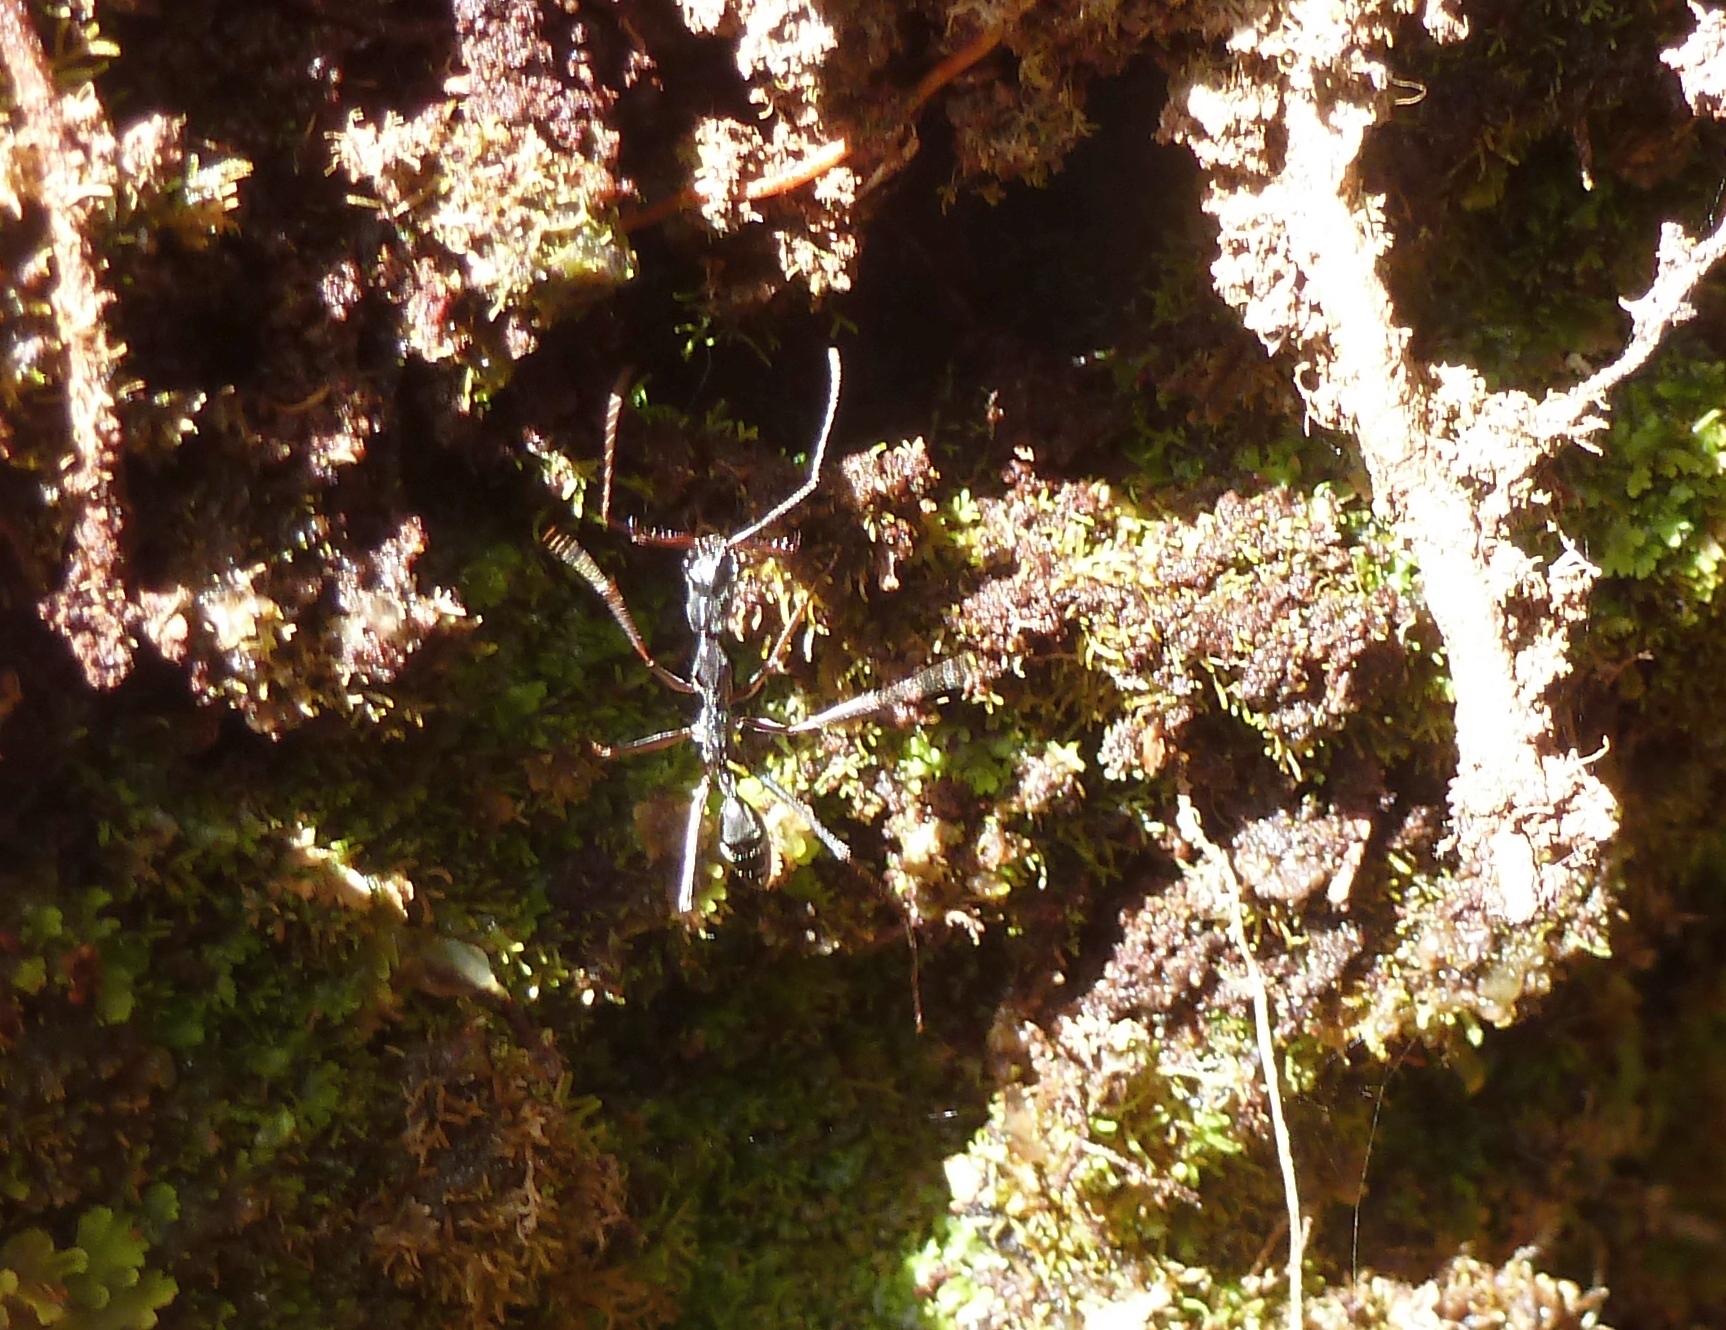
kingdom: Animalia
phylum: Arthropoda
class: Insecta
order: Hymenoptera
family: Formicidae
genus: Odontomachus
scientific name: Odontomachus coquereli
